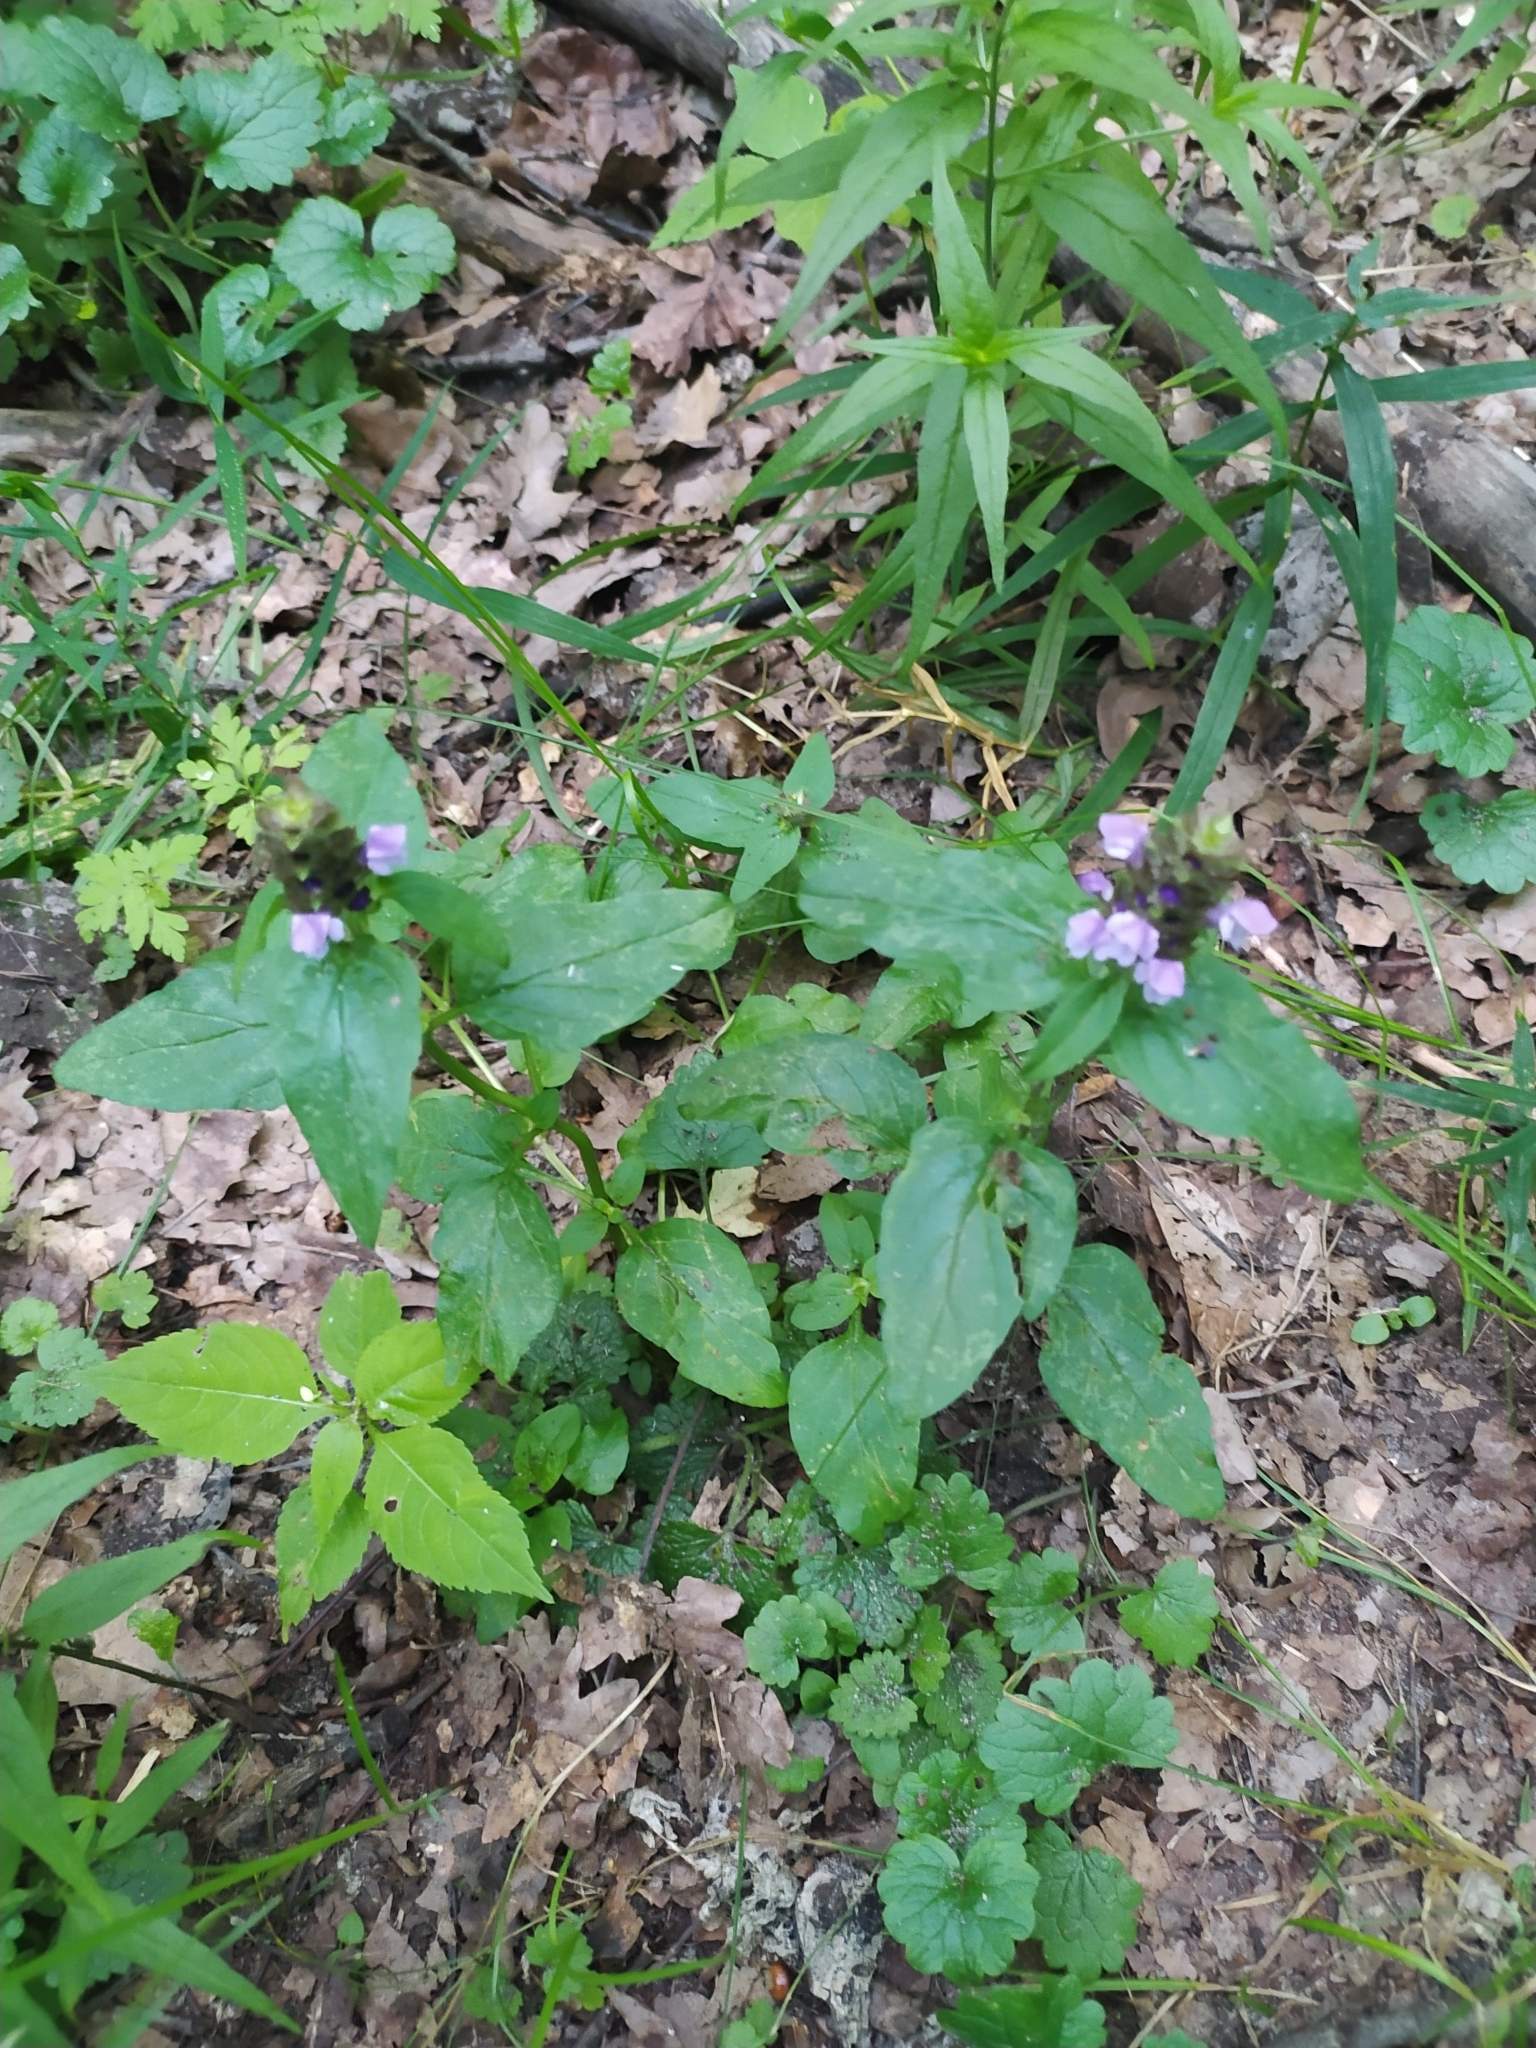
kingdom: Plantae
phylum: Tracheophyta
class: Magnoliopsida
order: Lamiales
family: Lamiaceae
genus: Prunella
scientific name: Prunella vulgaris
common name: Heal-all
